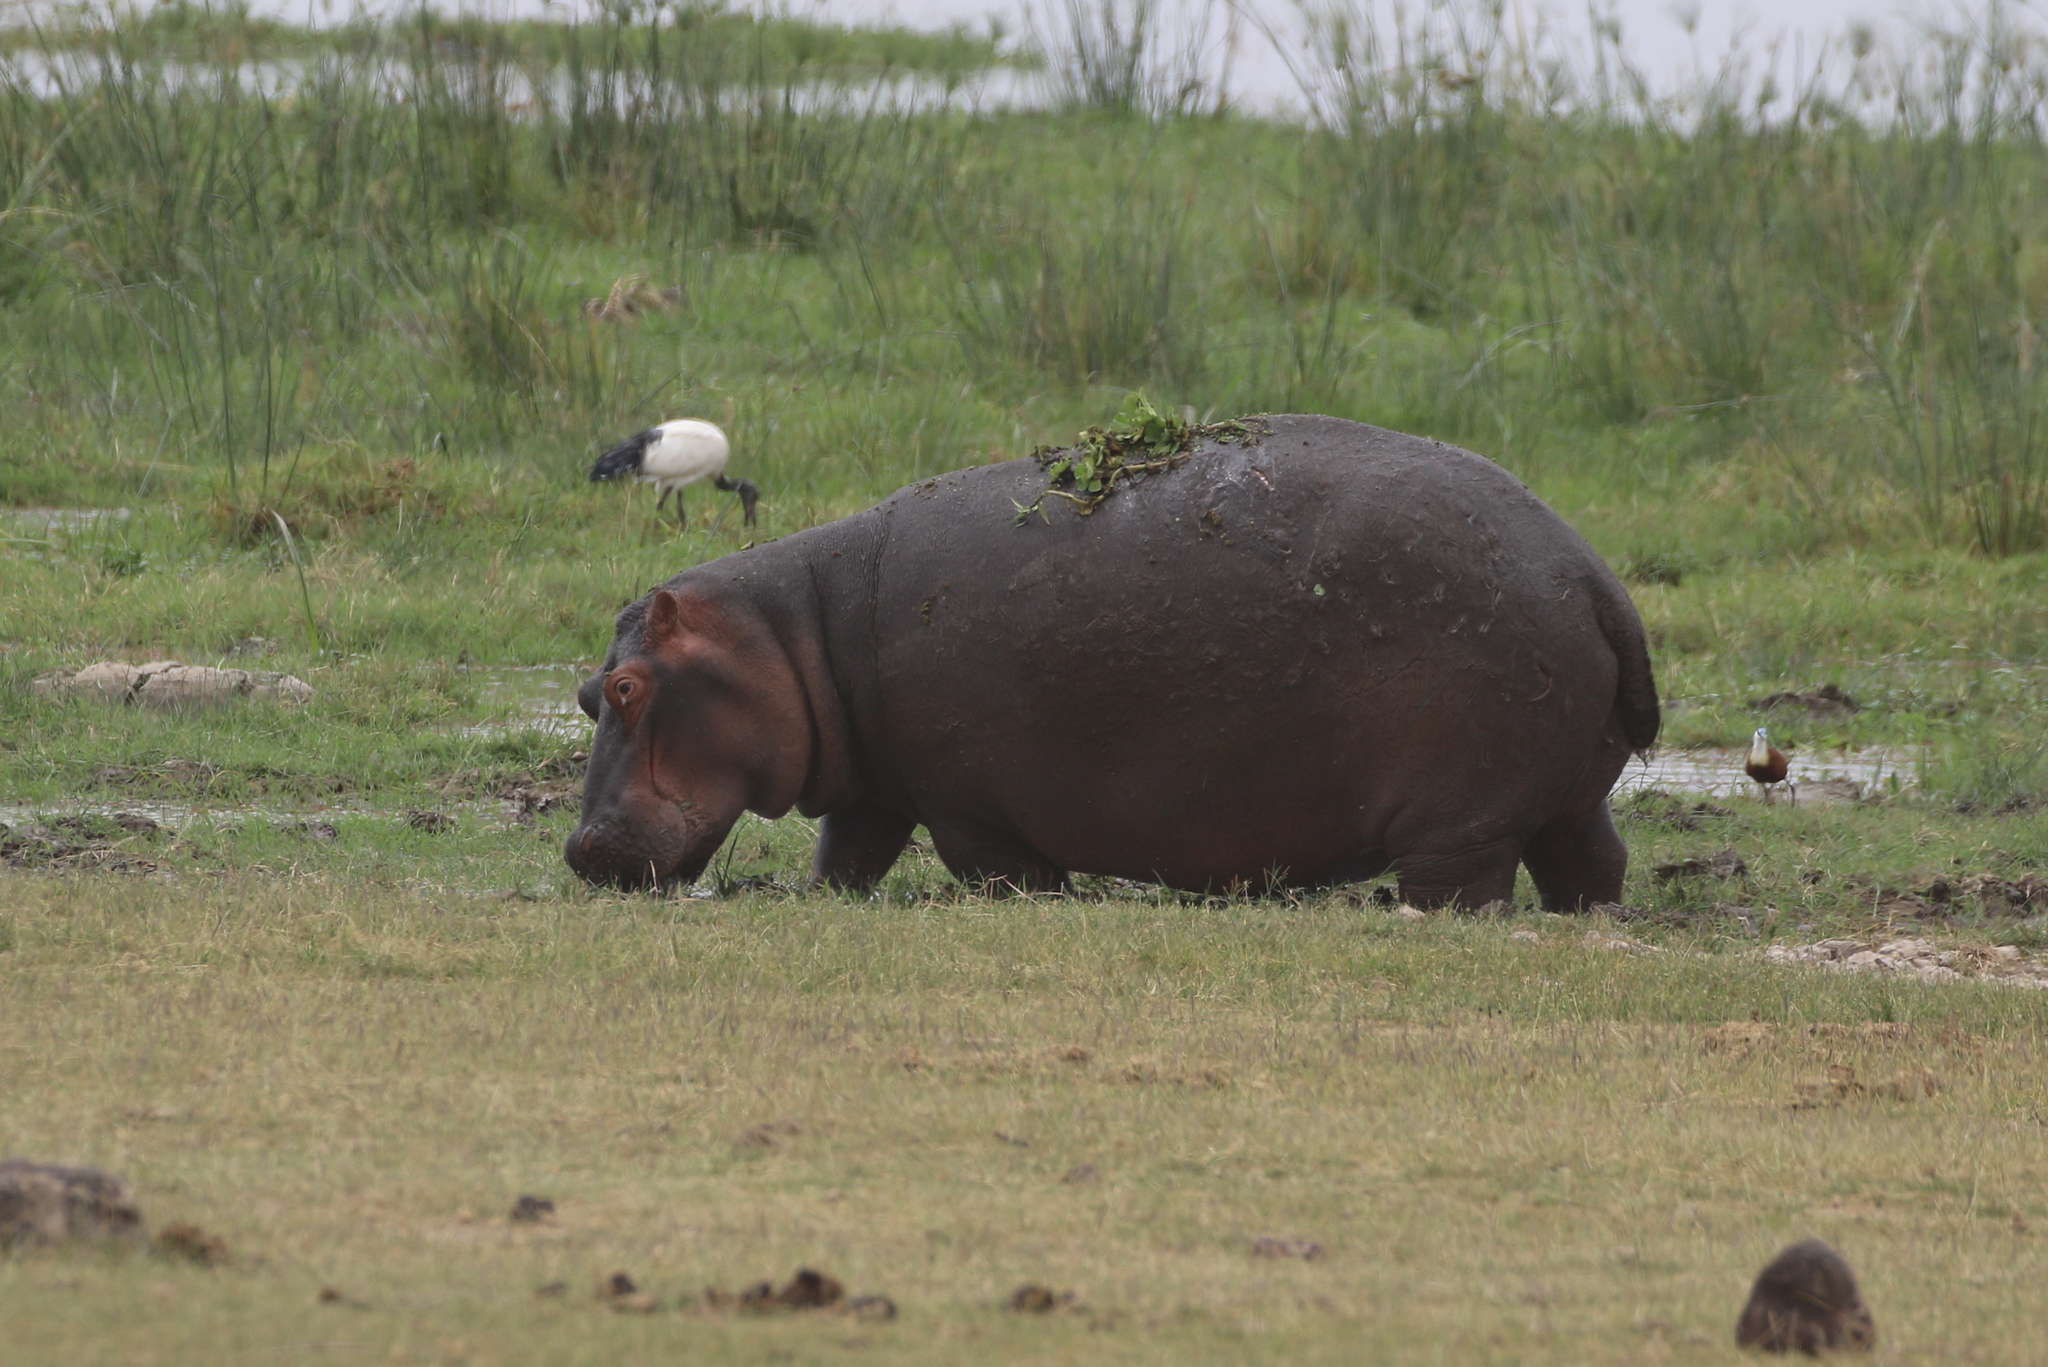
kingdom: Animalia
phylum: Chordata
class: Mammalia
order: Artiodactyla
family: Hippopotamidae
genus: Hippopotamus
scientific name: Hippopotamus amphibius
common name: Common hippopotamus
